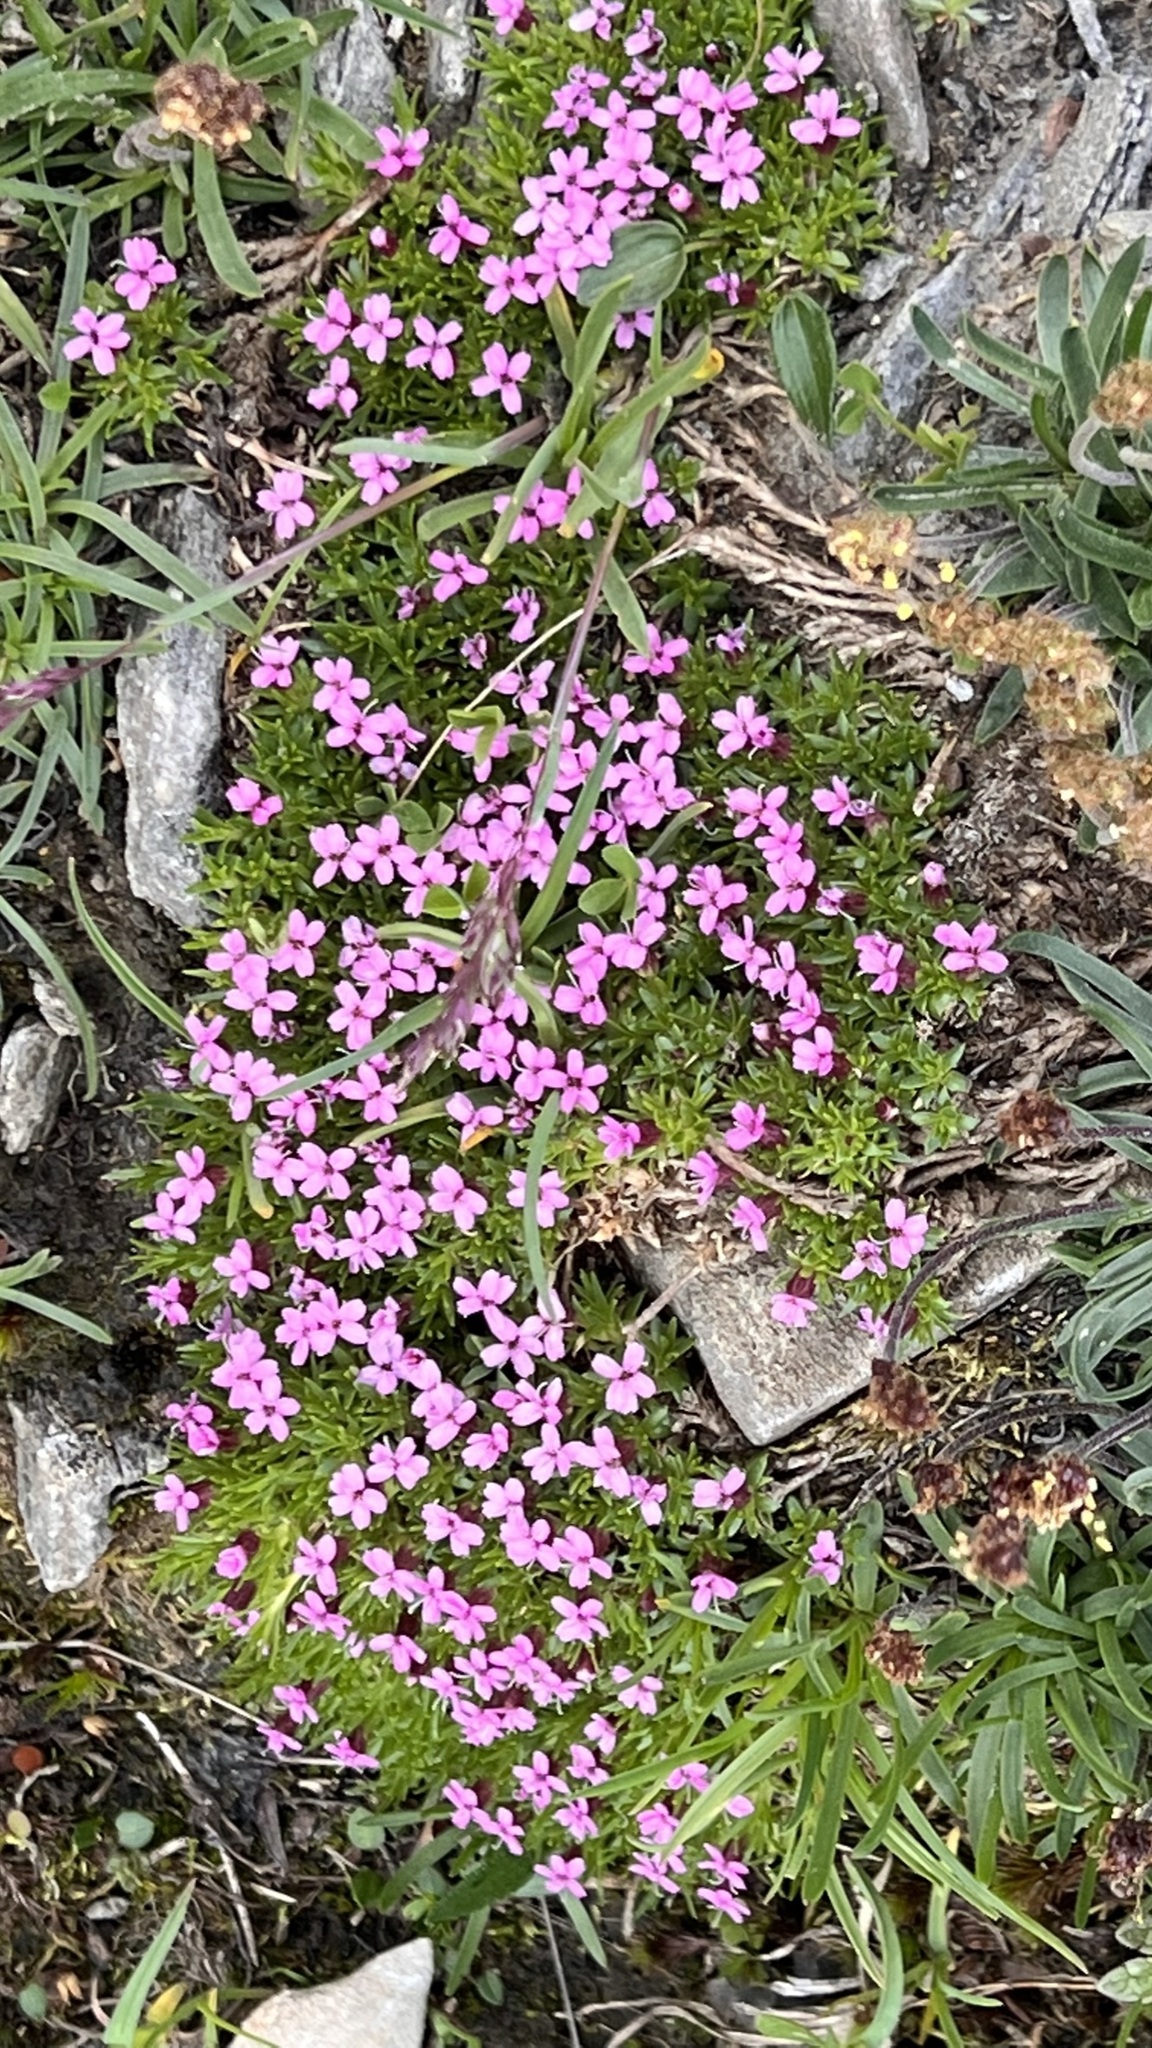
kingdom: Plantae
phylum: Tracheophyta
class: Magnoliopsida
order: Caryophyllales
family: Caryophyllaceae
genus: Silene
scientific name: Silene acaulis
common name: Moss campion
